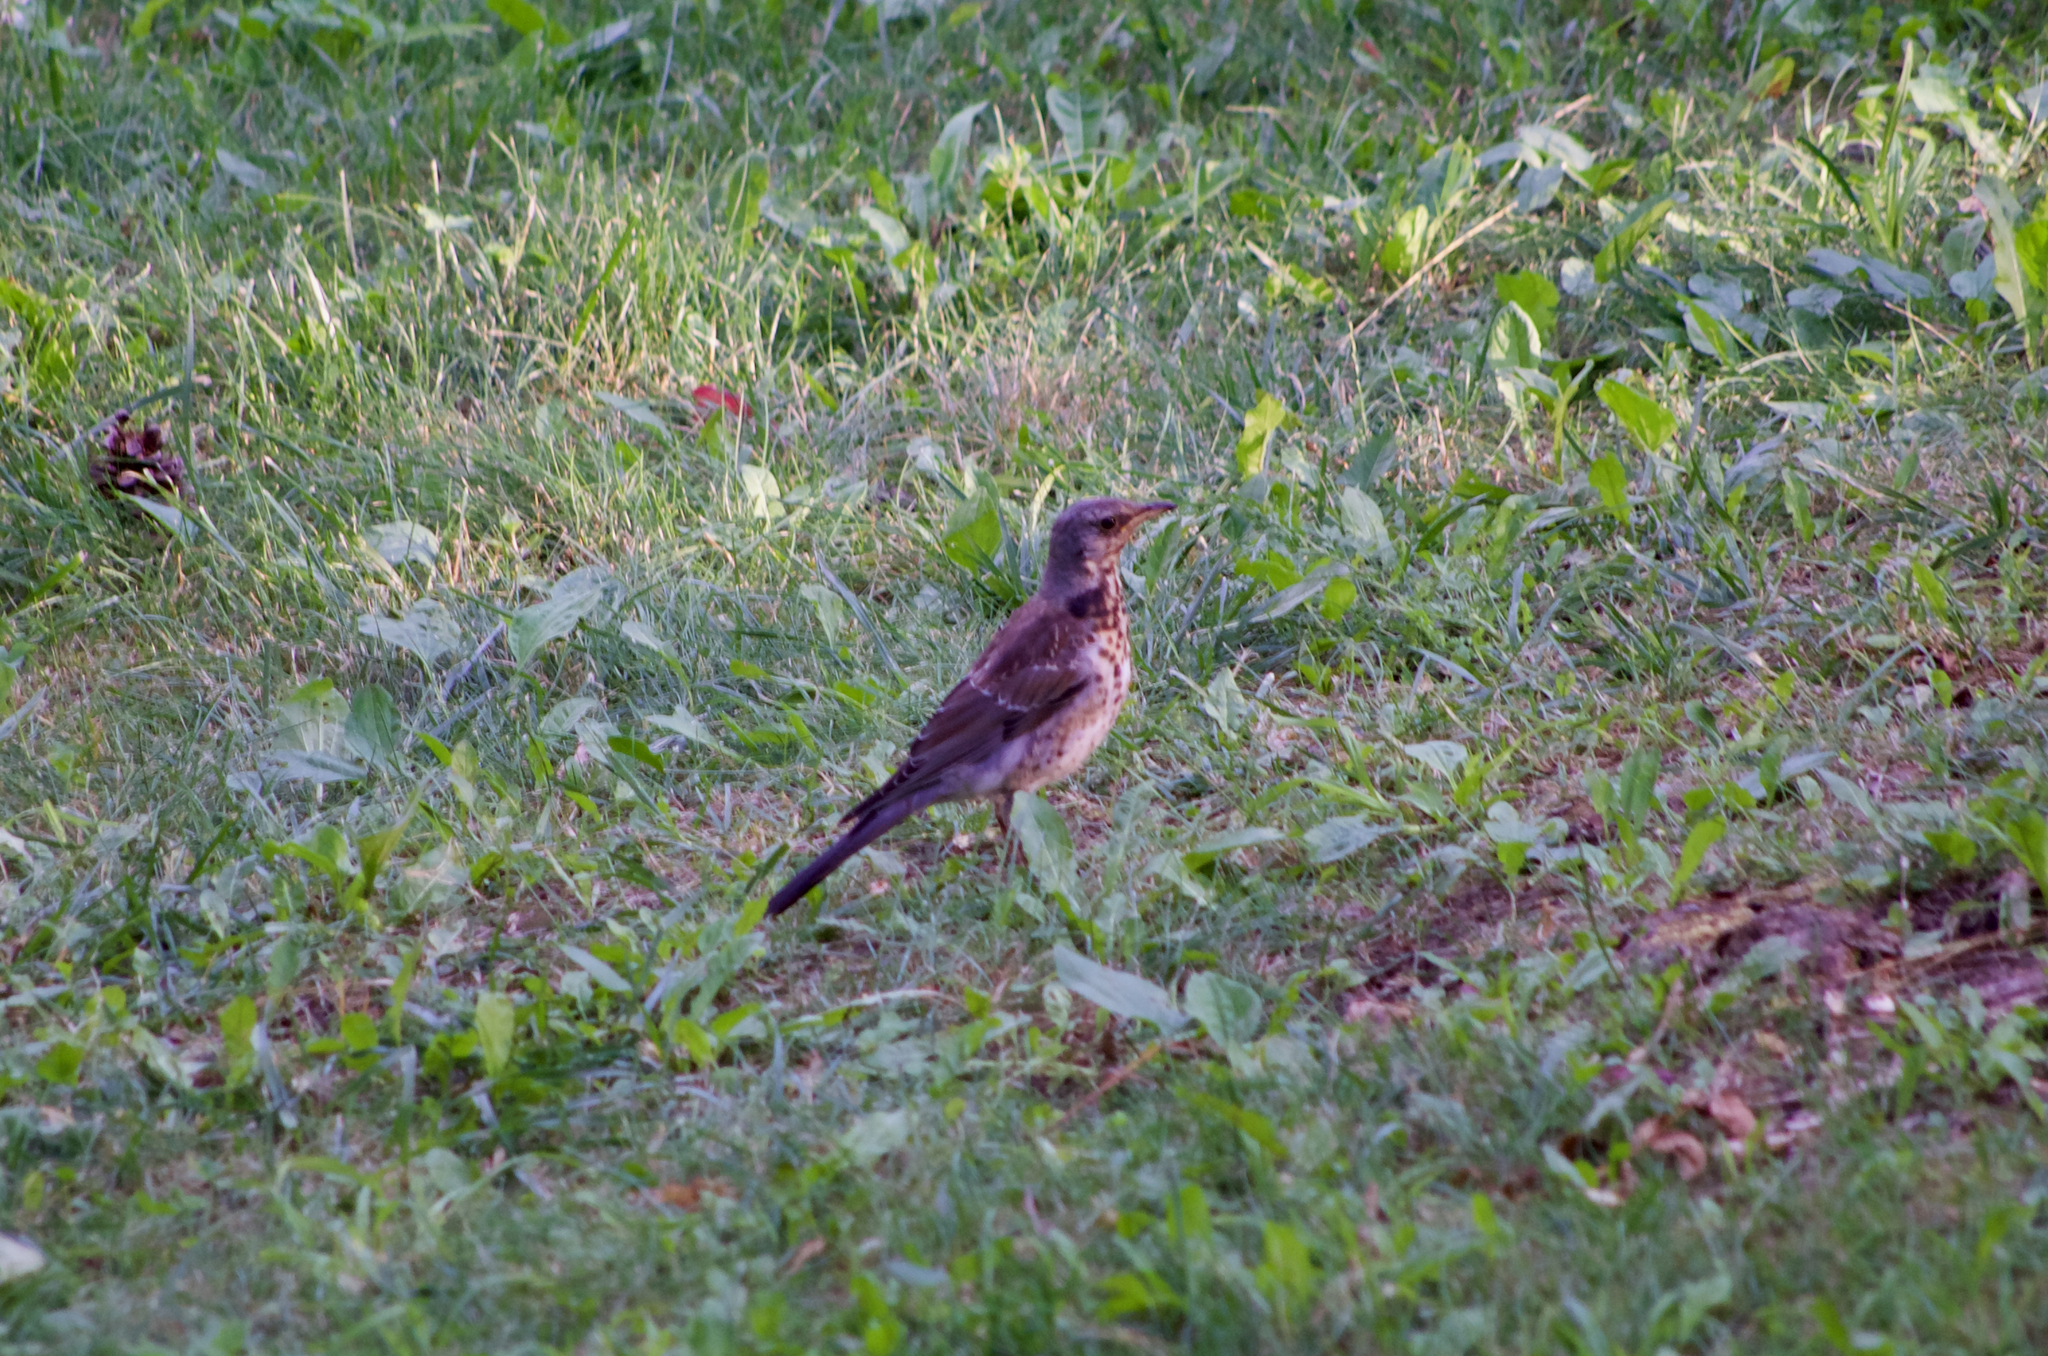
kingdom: Animalia
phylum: Chordata
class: Aves
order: Passeriformes
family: Turdidae
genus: Turdus
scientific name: Turdus pilaris
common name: Fieldfare
